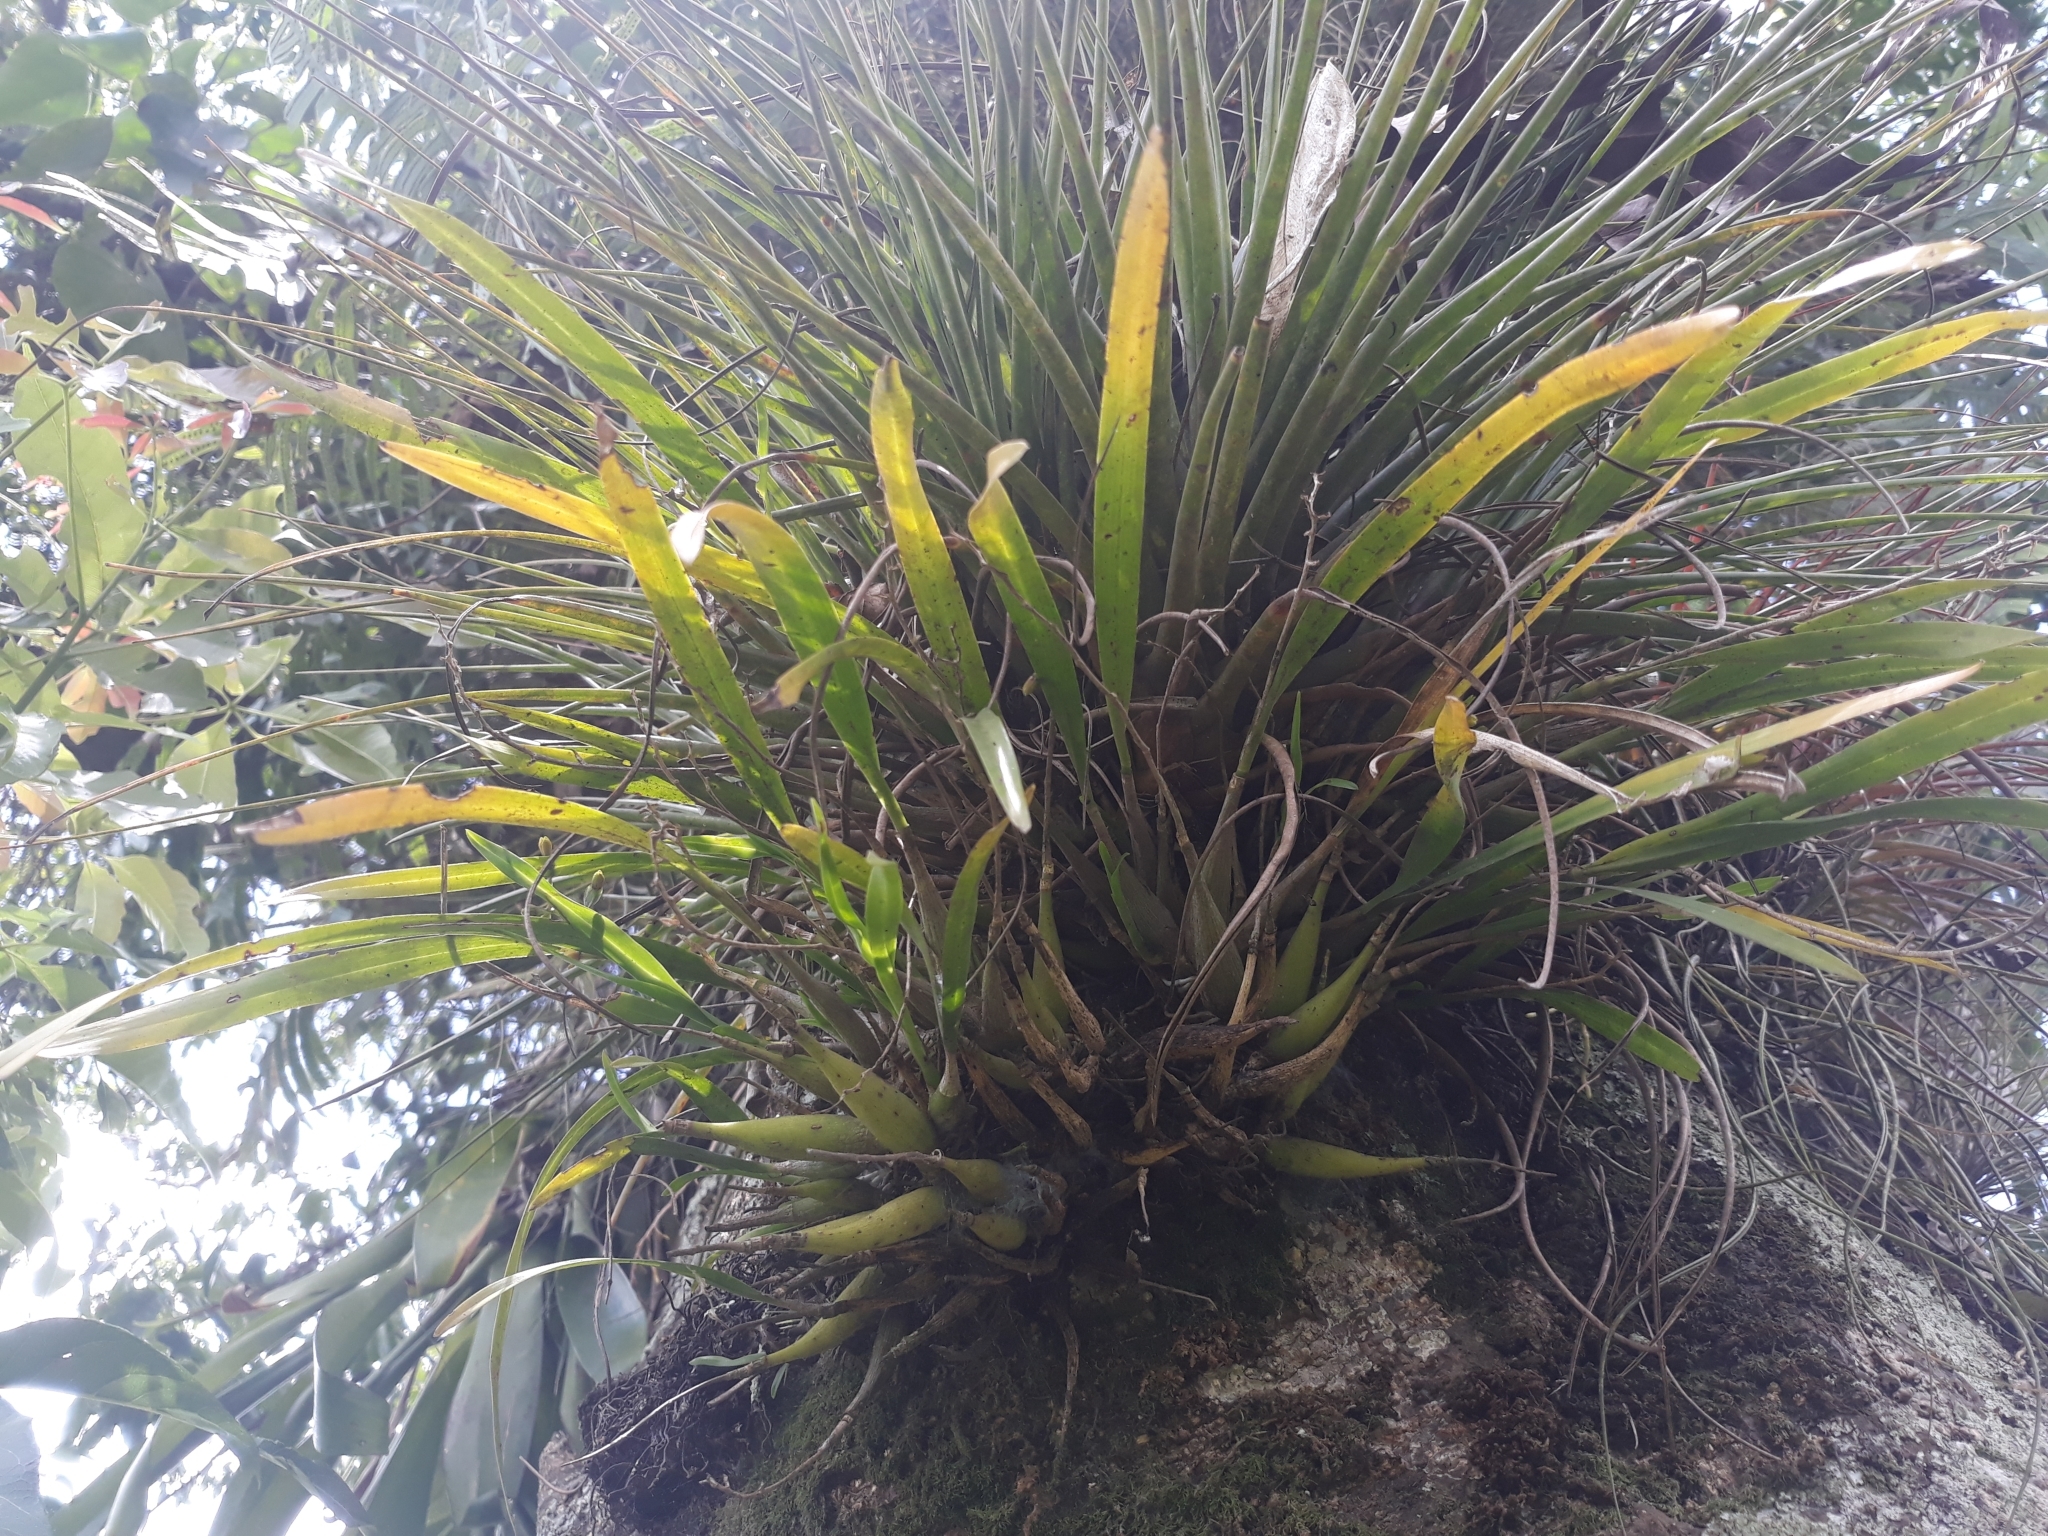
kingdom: Plantae
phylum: Tracheophyta
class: Liliopsida
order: Asparagales
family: Orchidaceae
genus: Prosthechea
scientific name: Prosthechea ochracea
